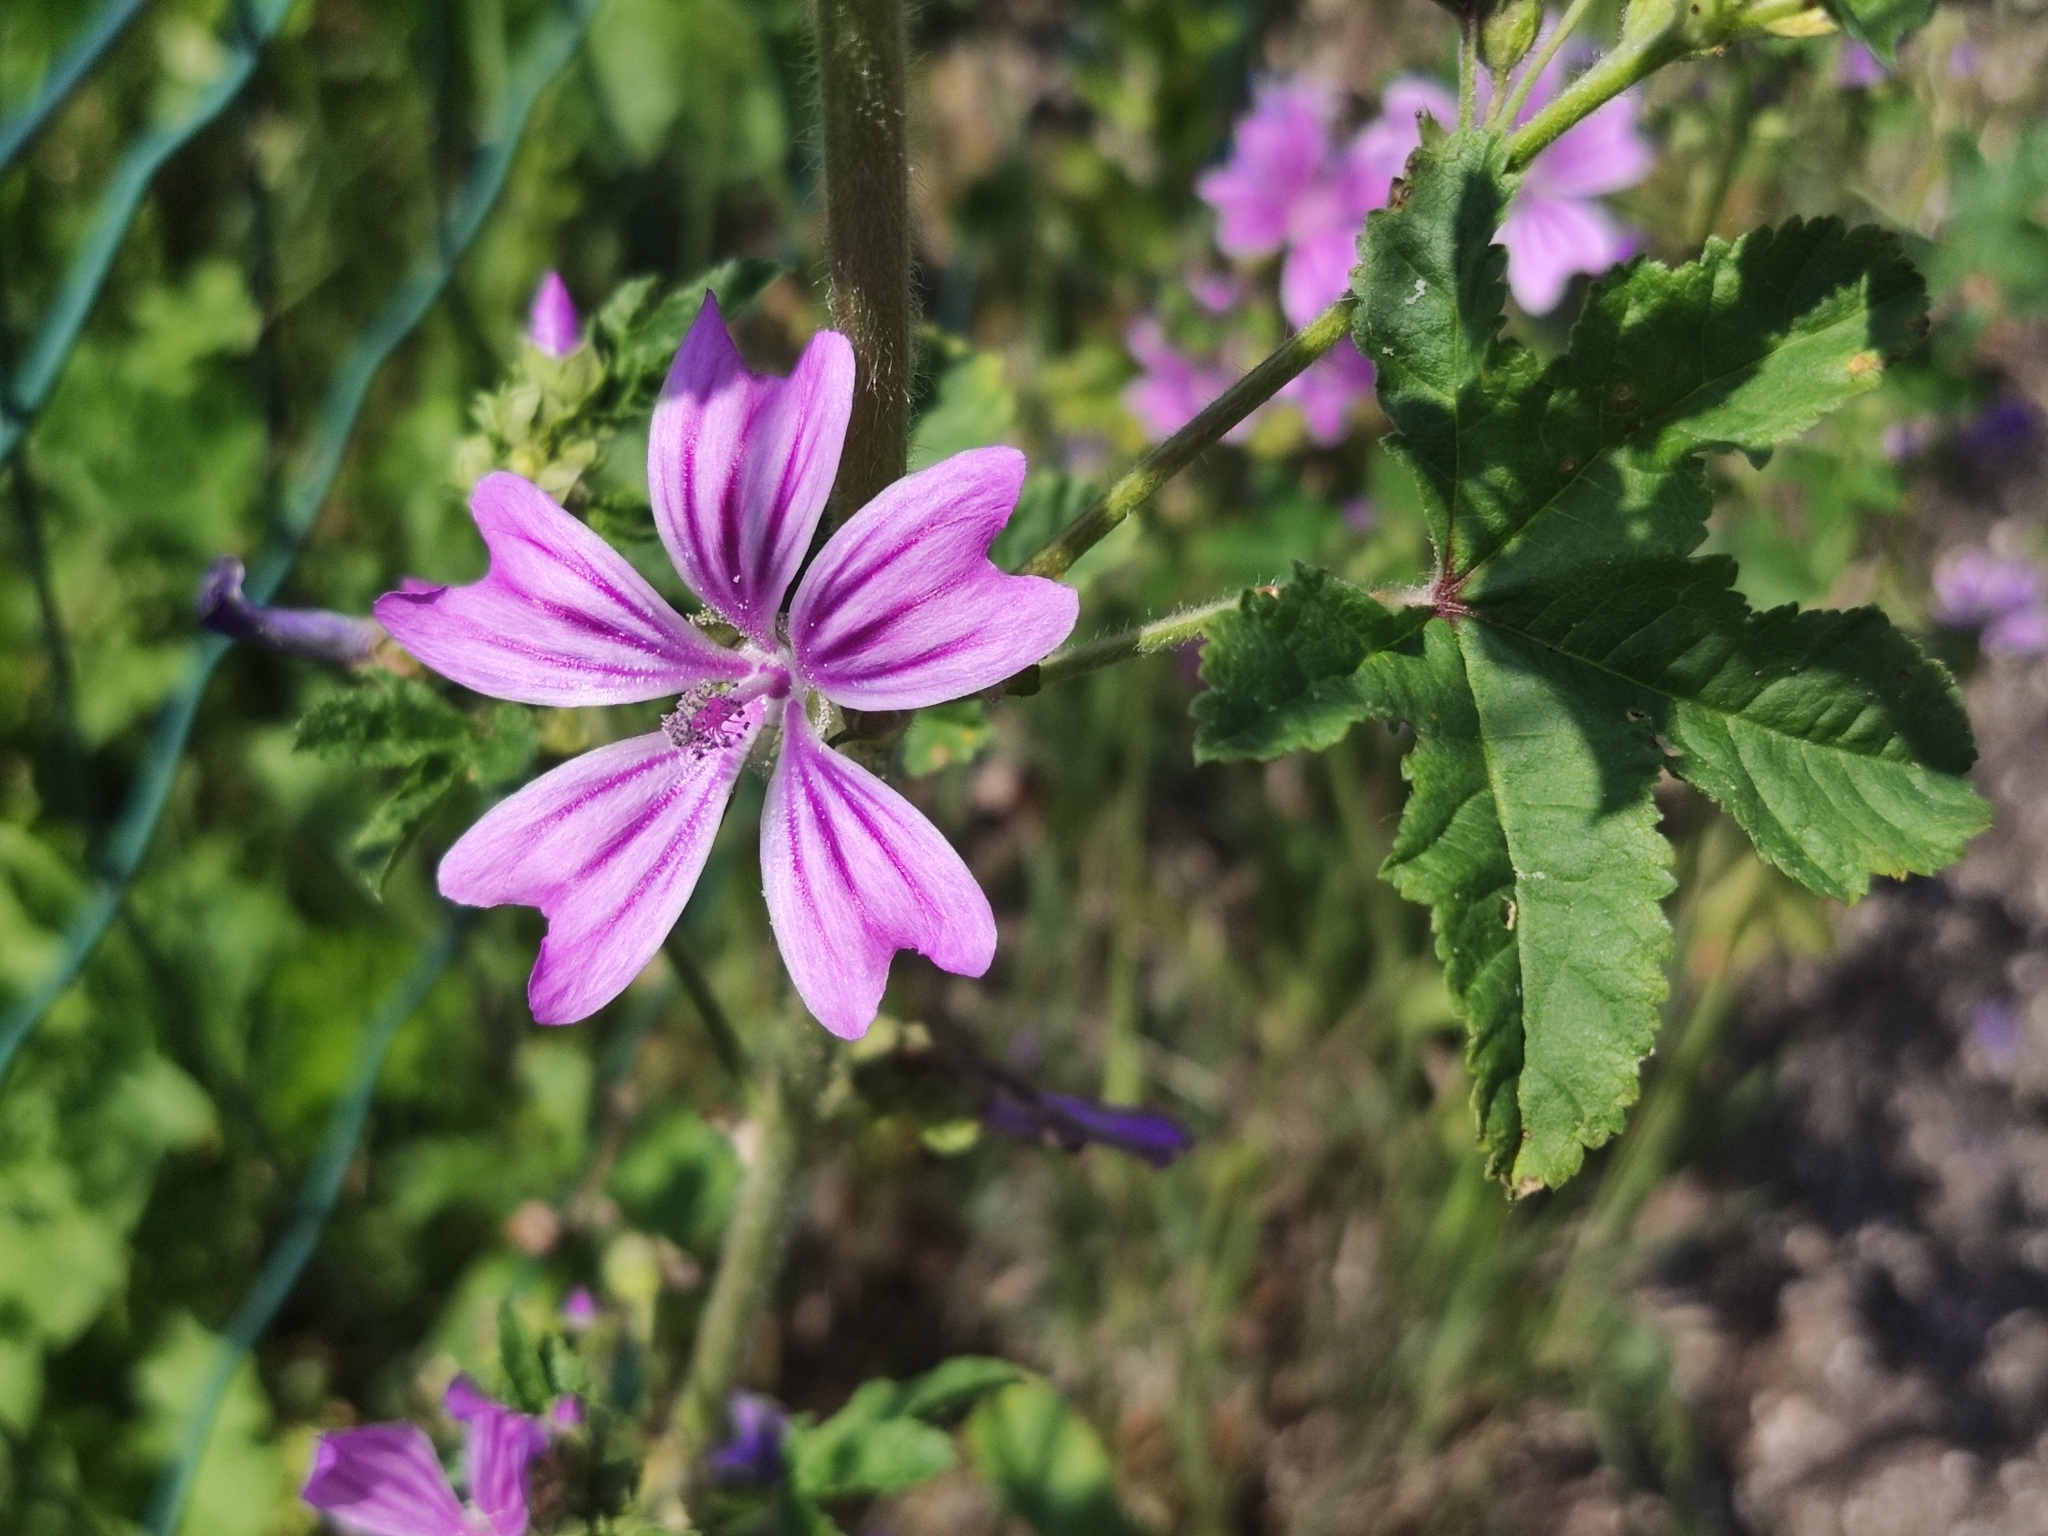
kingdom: Plantae
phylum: Tracheophyta
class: Magnoliopsida
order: Malvales
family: Malvaceae
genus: Malva
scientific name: Malva sylvestris
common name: Common mallow
